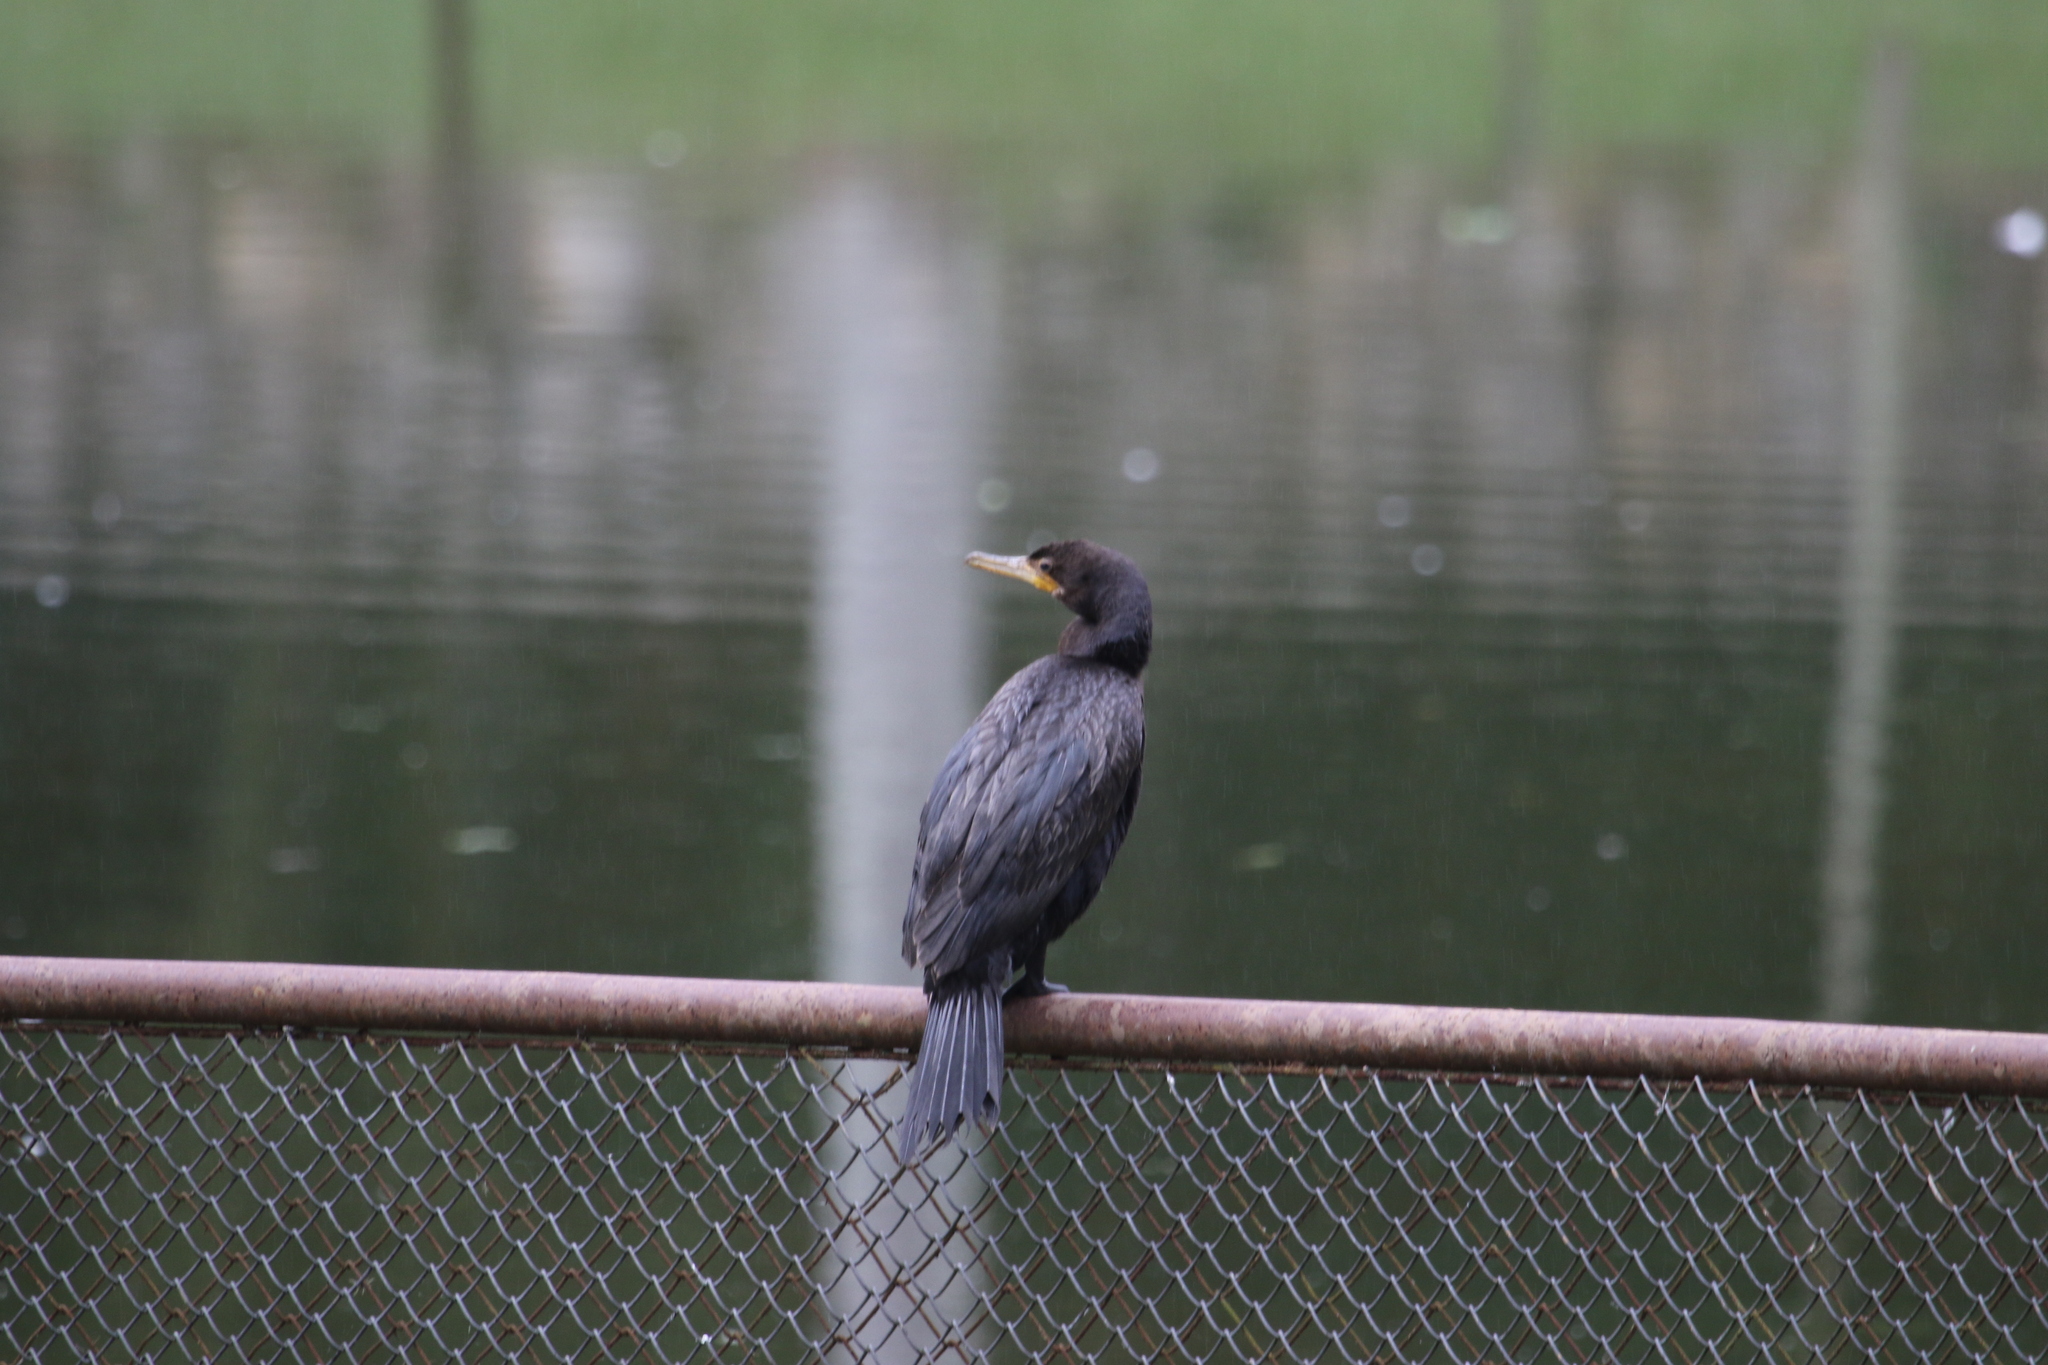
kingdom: Animalia
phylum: Chordata
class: Aves
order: Suliformes
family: Phalacrocoracidae
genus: Phalacrocorax
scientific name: Phalacrocorax brasilianus
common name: Neotropic cormorant
